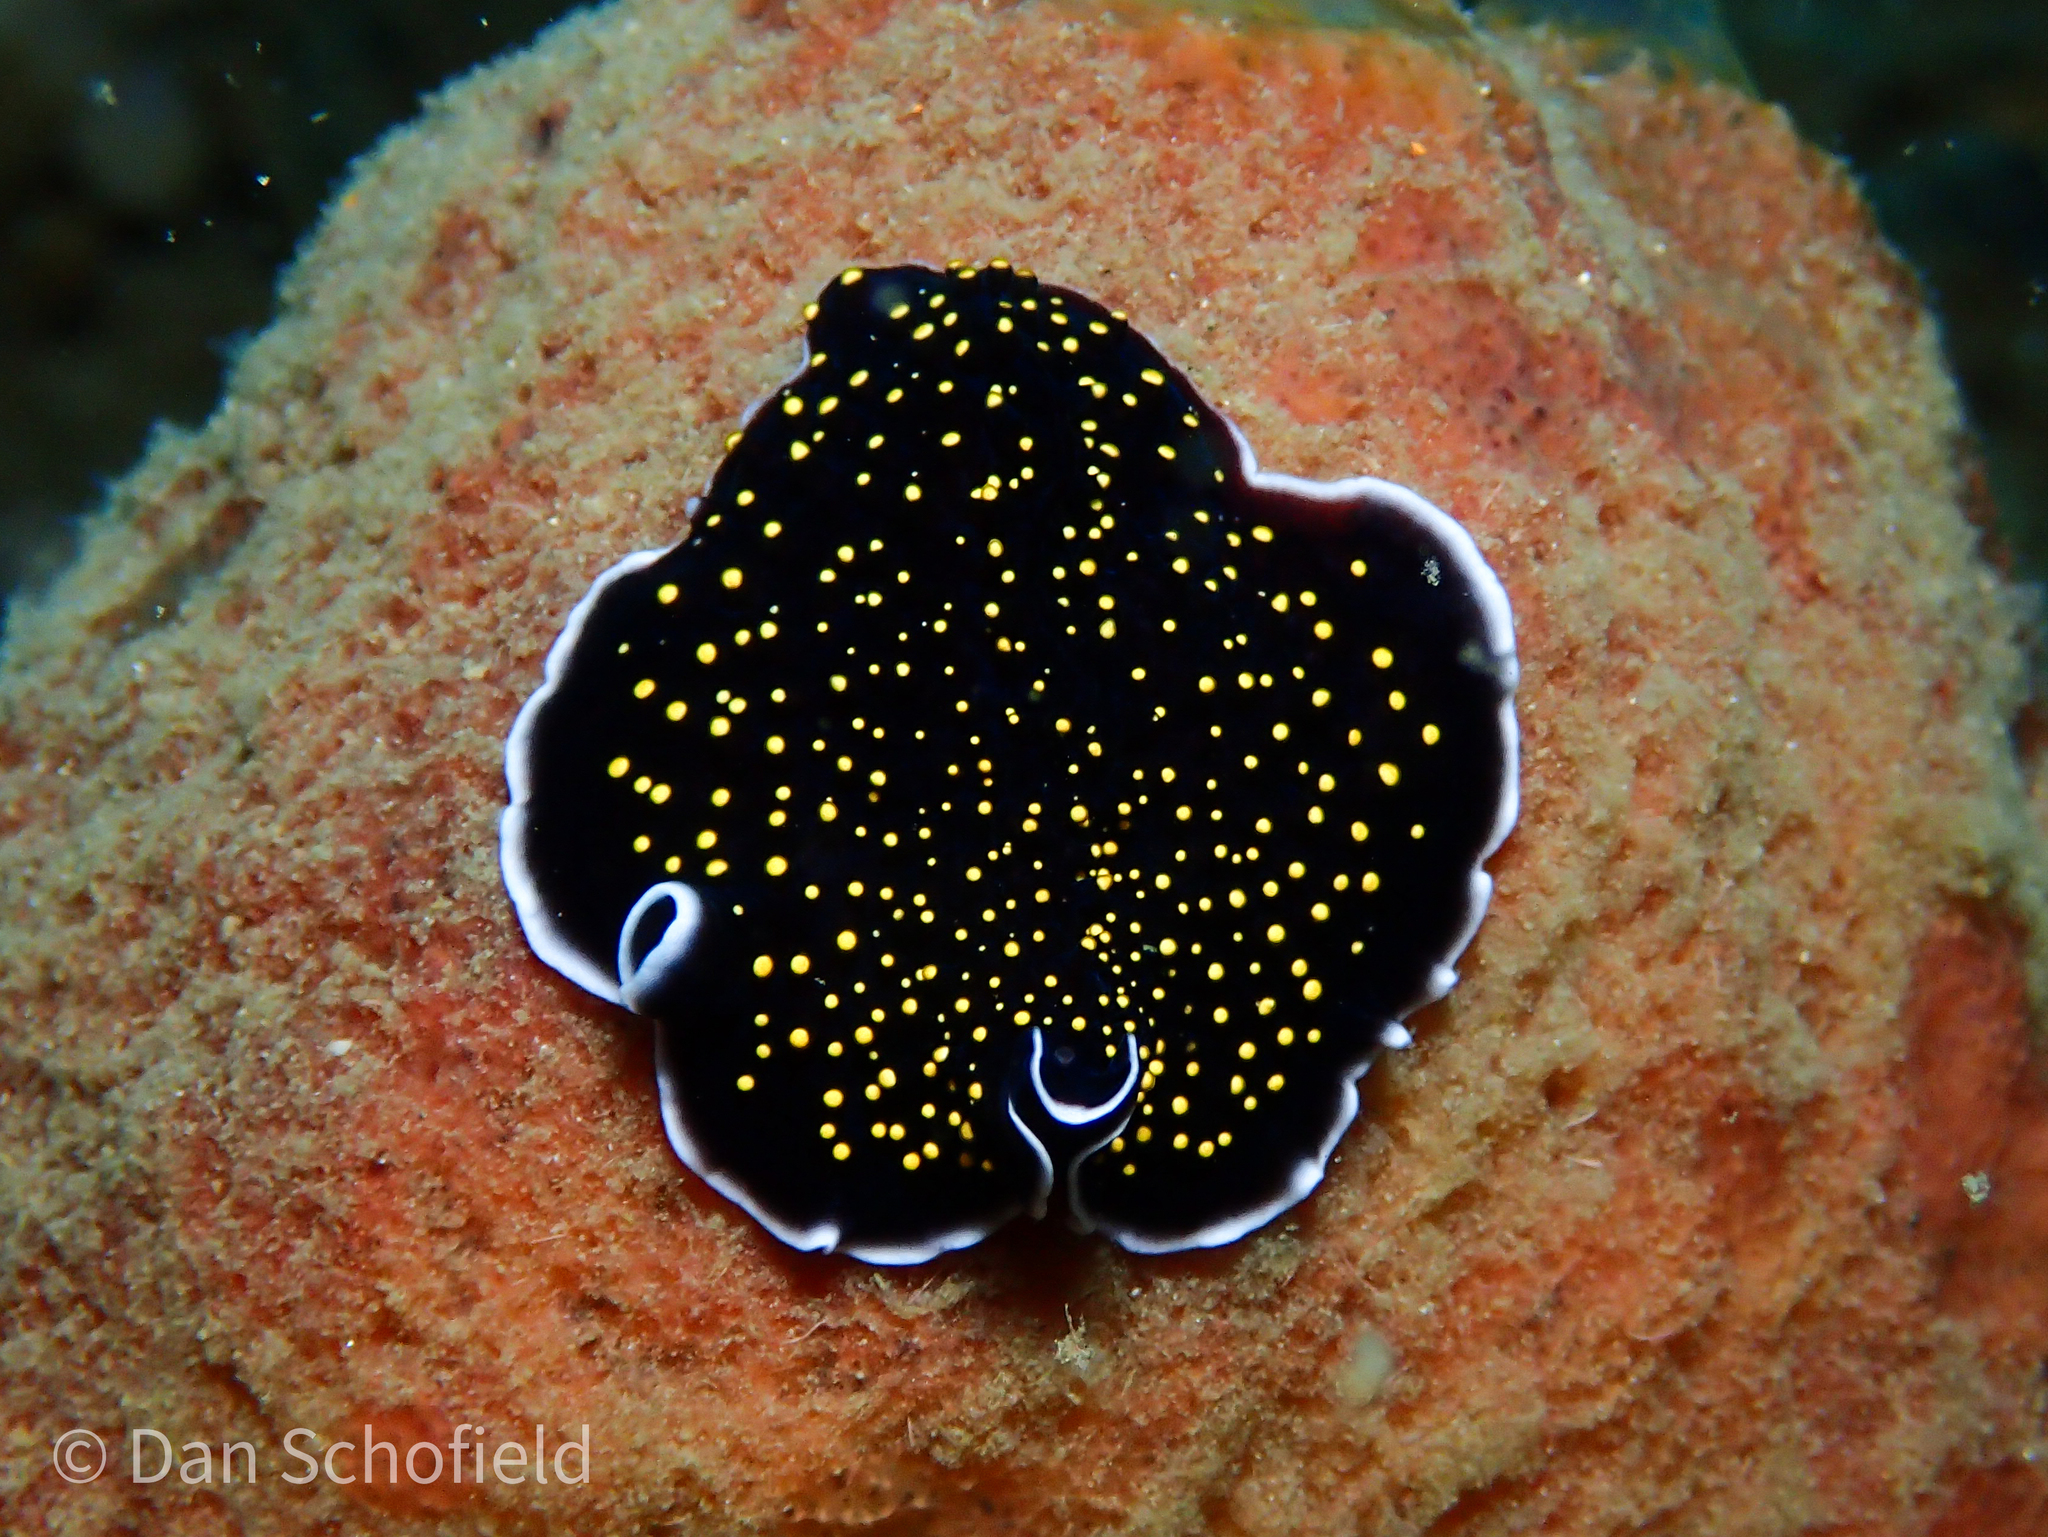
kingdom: Animalia
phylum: Platyhelminthes
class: Turbellaria
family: Pseudocerotidae
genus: Thysanozoon
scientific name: Thysanozoon nigropapillosum
